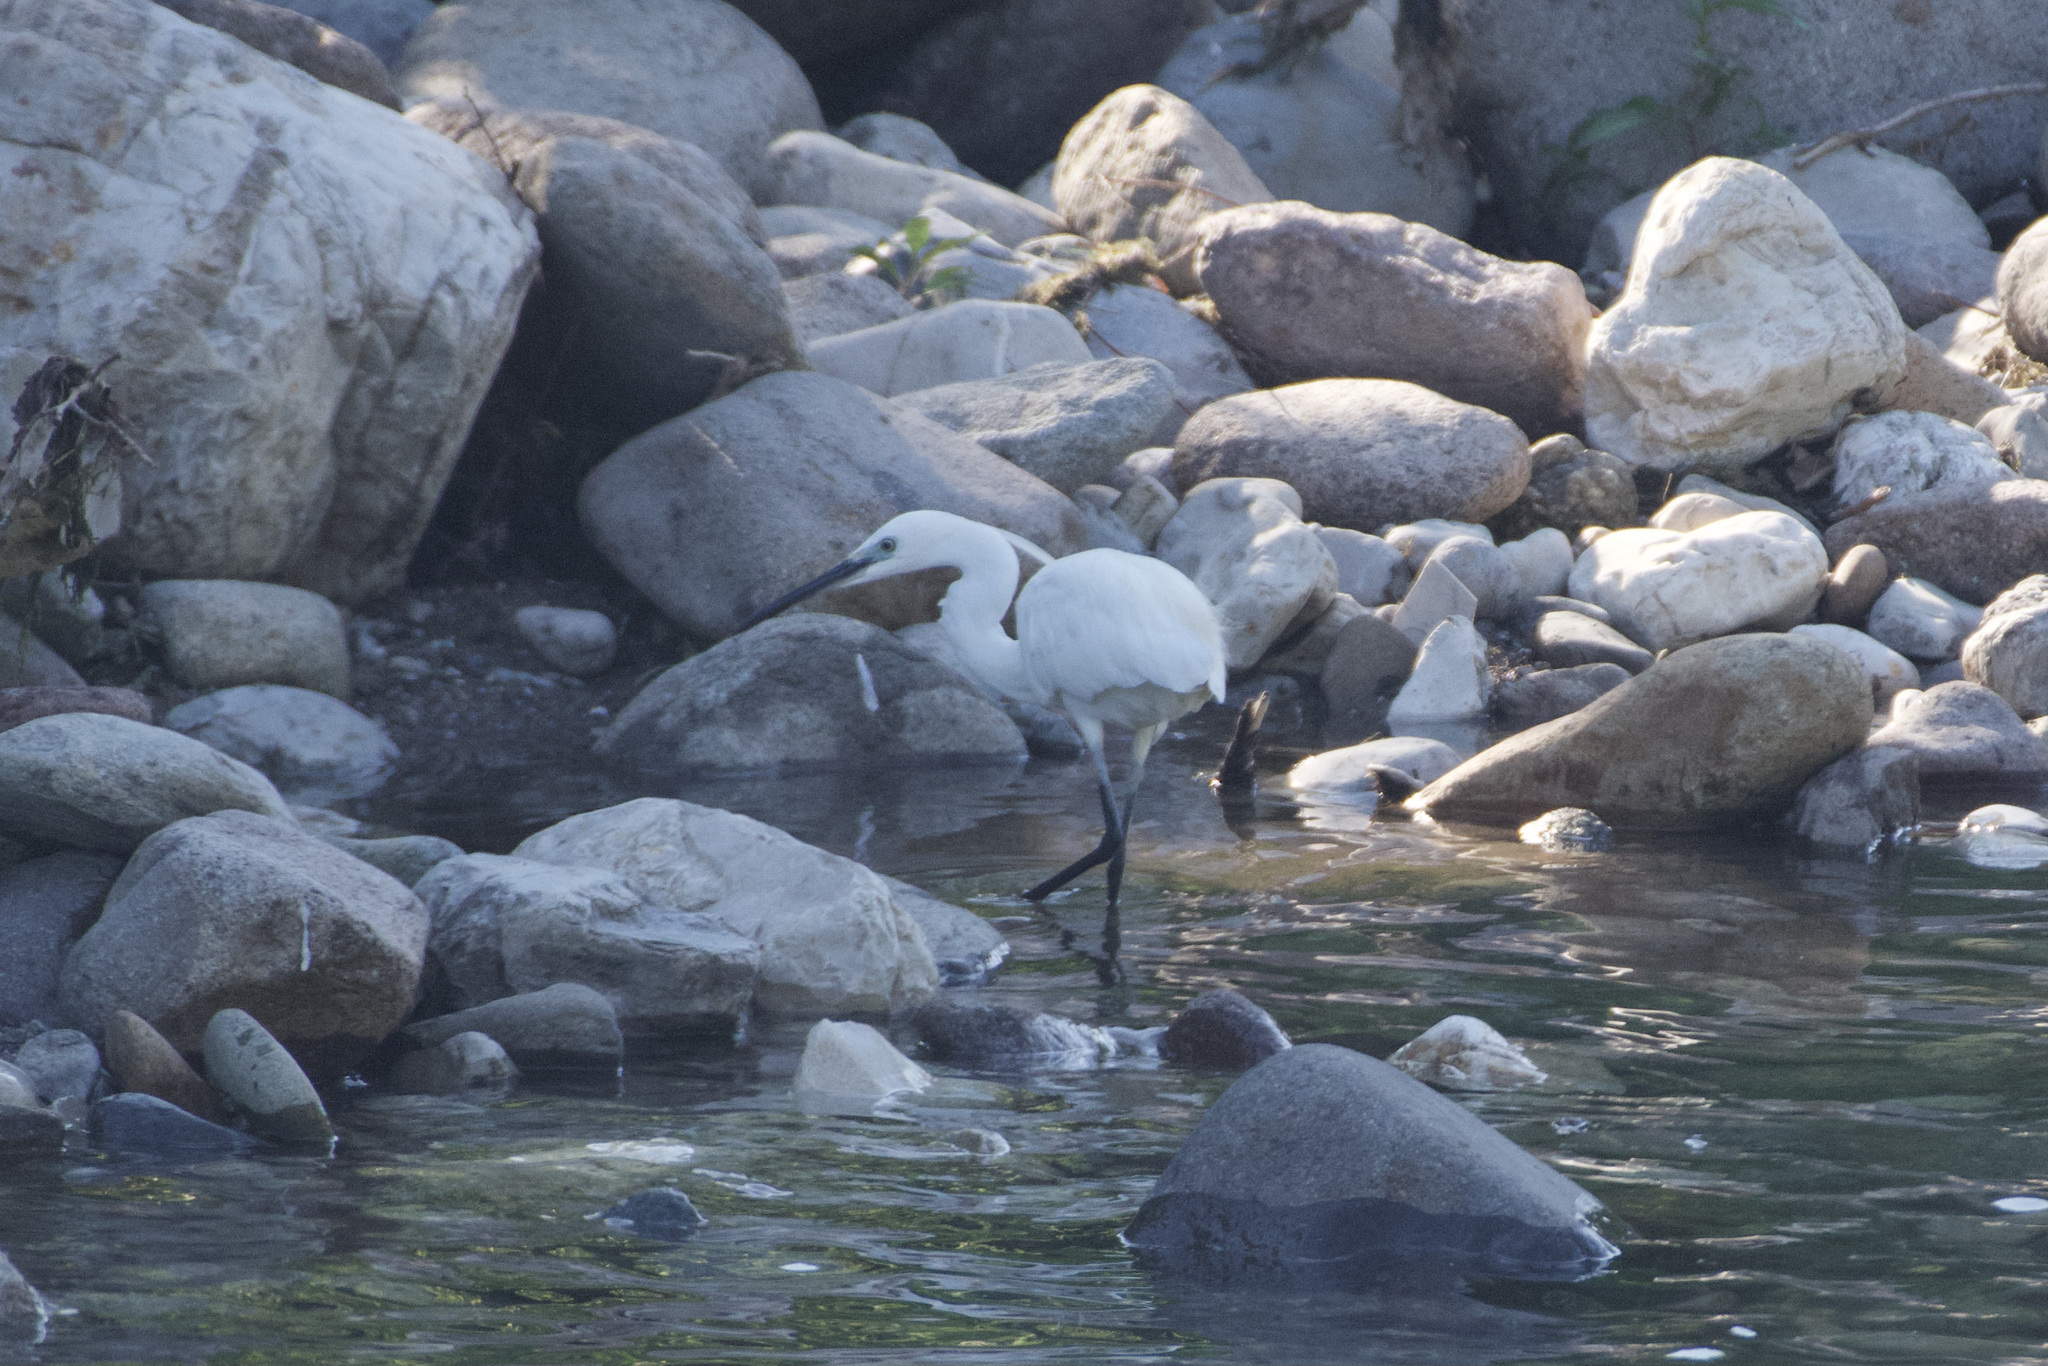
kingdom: Animalia
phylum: Chordata
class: Aves
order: Pelecaniformes
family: Ardeidae
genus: Egretta
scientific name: Egretta garzetta
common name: Little egret
